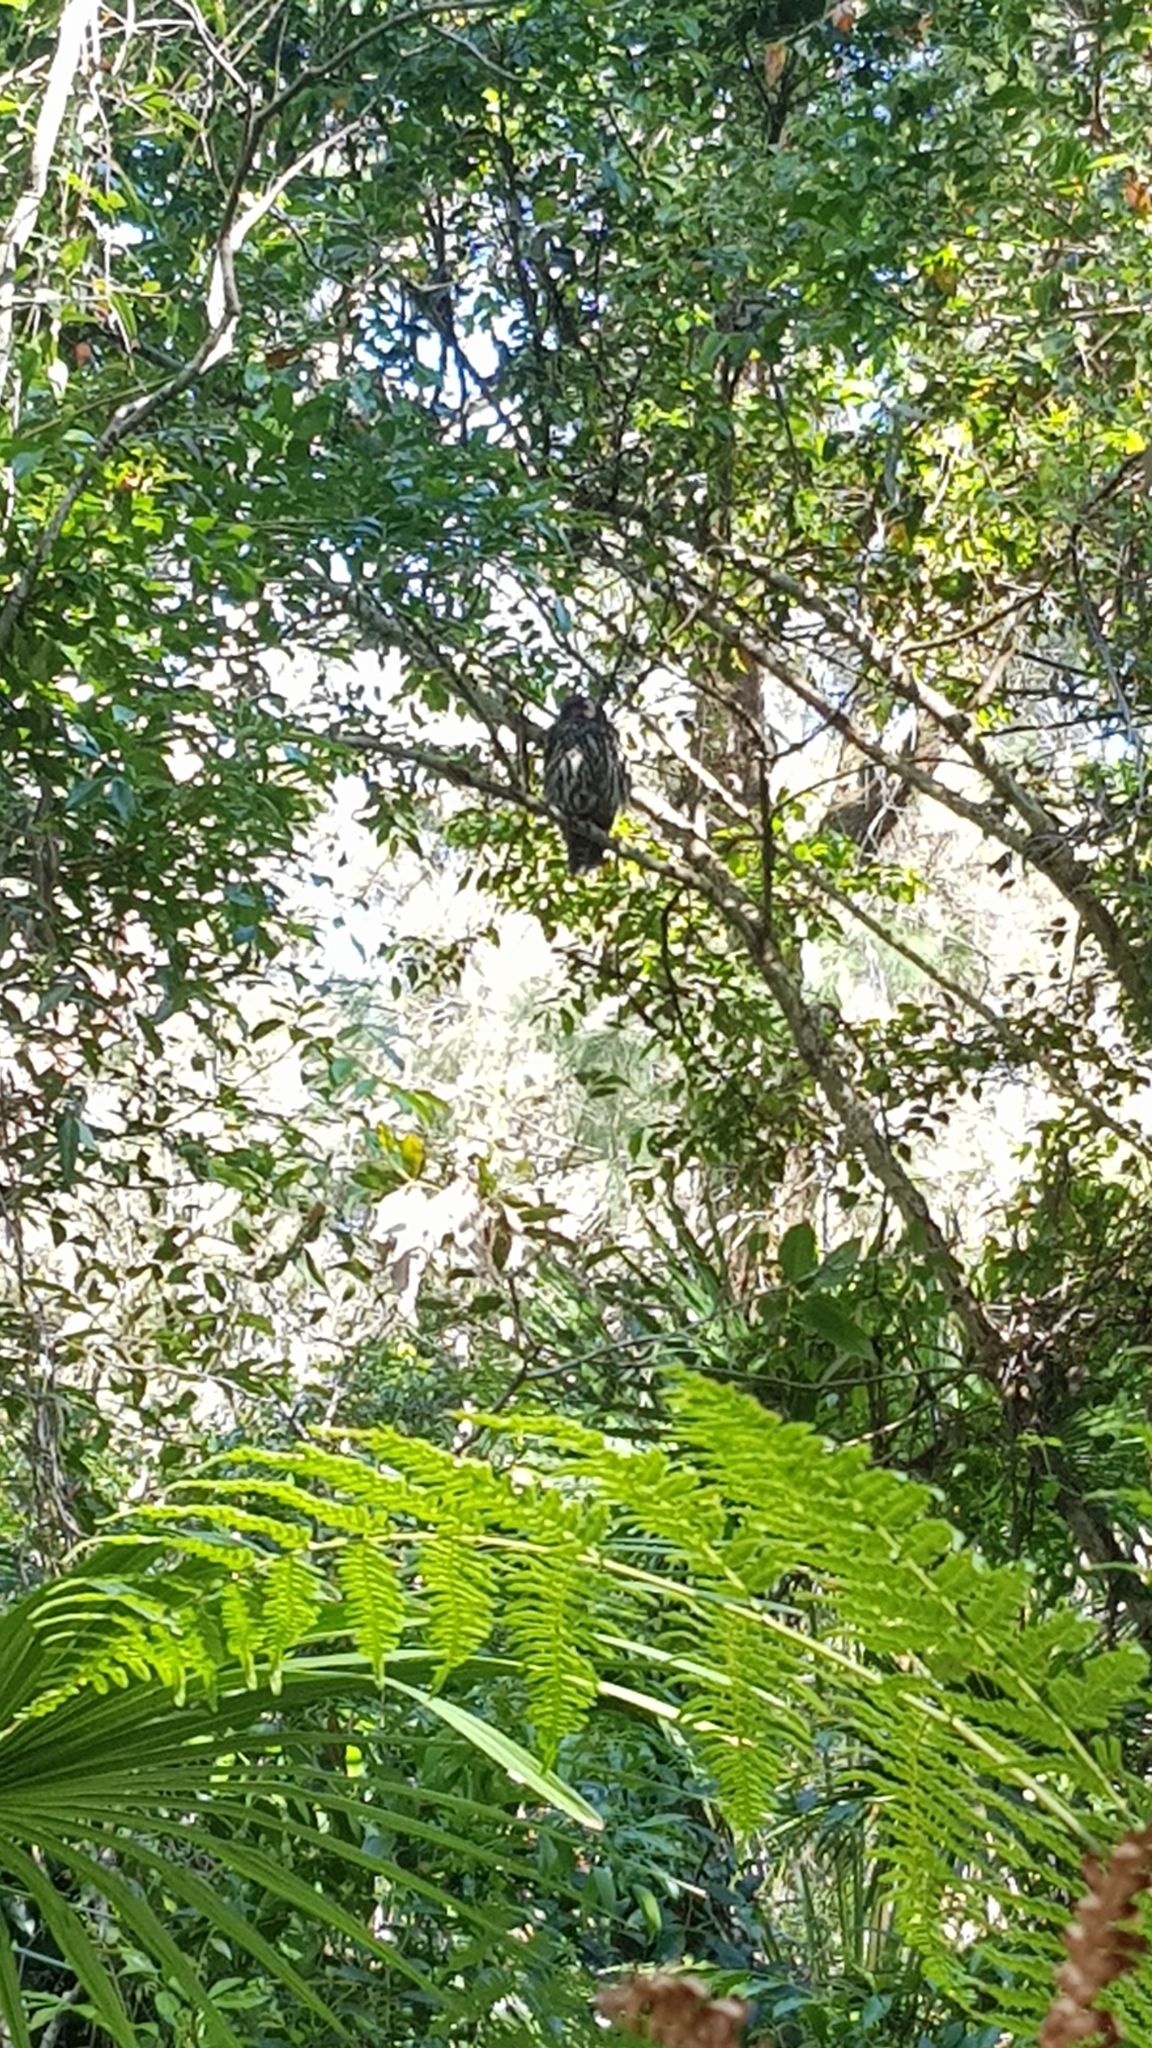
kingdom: Animalia
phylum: Chordata
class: Aves
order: Strigiformes
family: Strigidae
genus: Ninox
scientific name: Ninox connivens
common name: Barking owl
